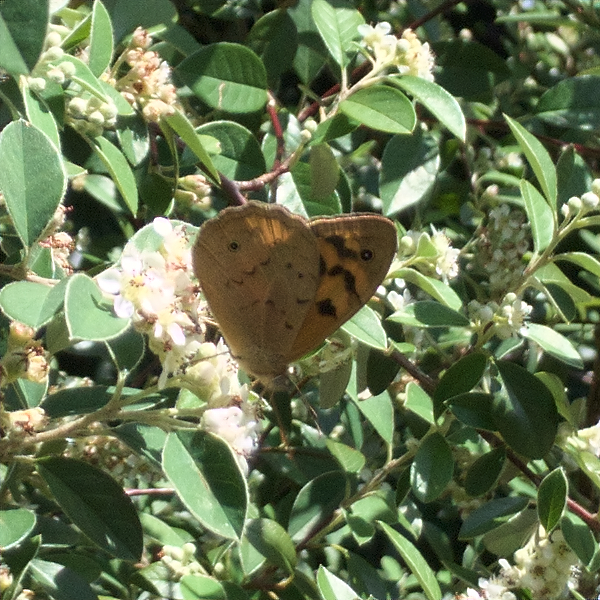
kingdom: Animalia
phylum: Arthropoda
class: Insecta
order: Lepidoptera
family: Nymphalidae
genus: Heteronympha
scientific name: Heteronympha merope
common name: Common brown
